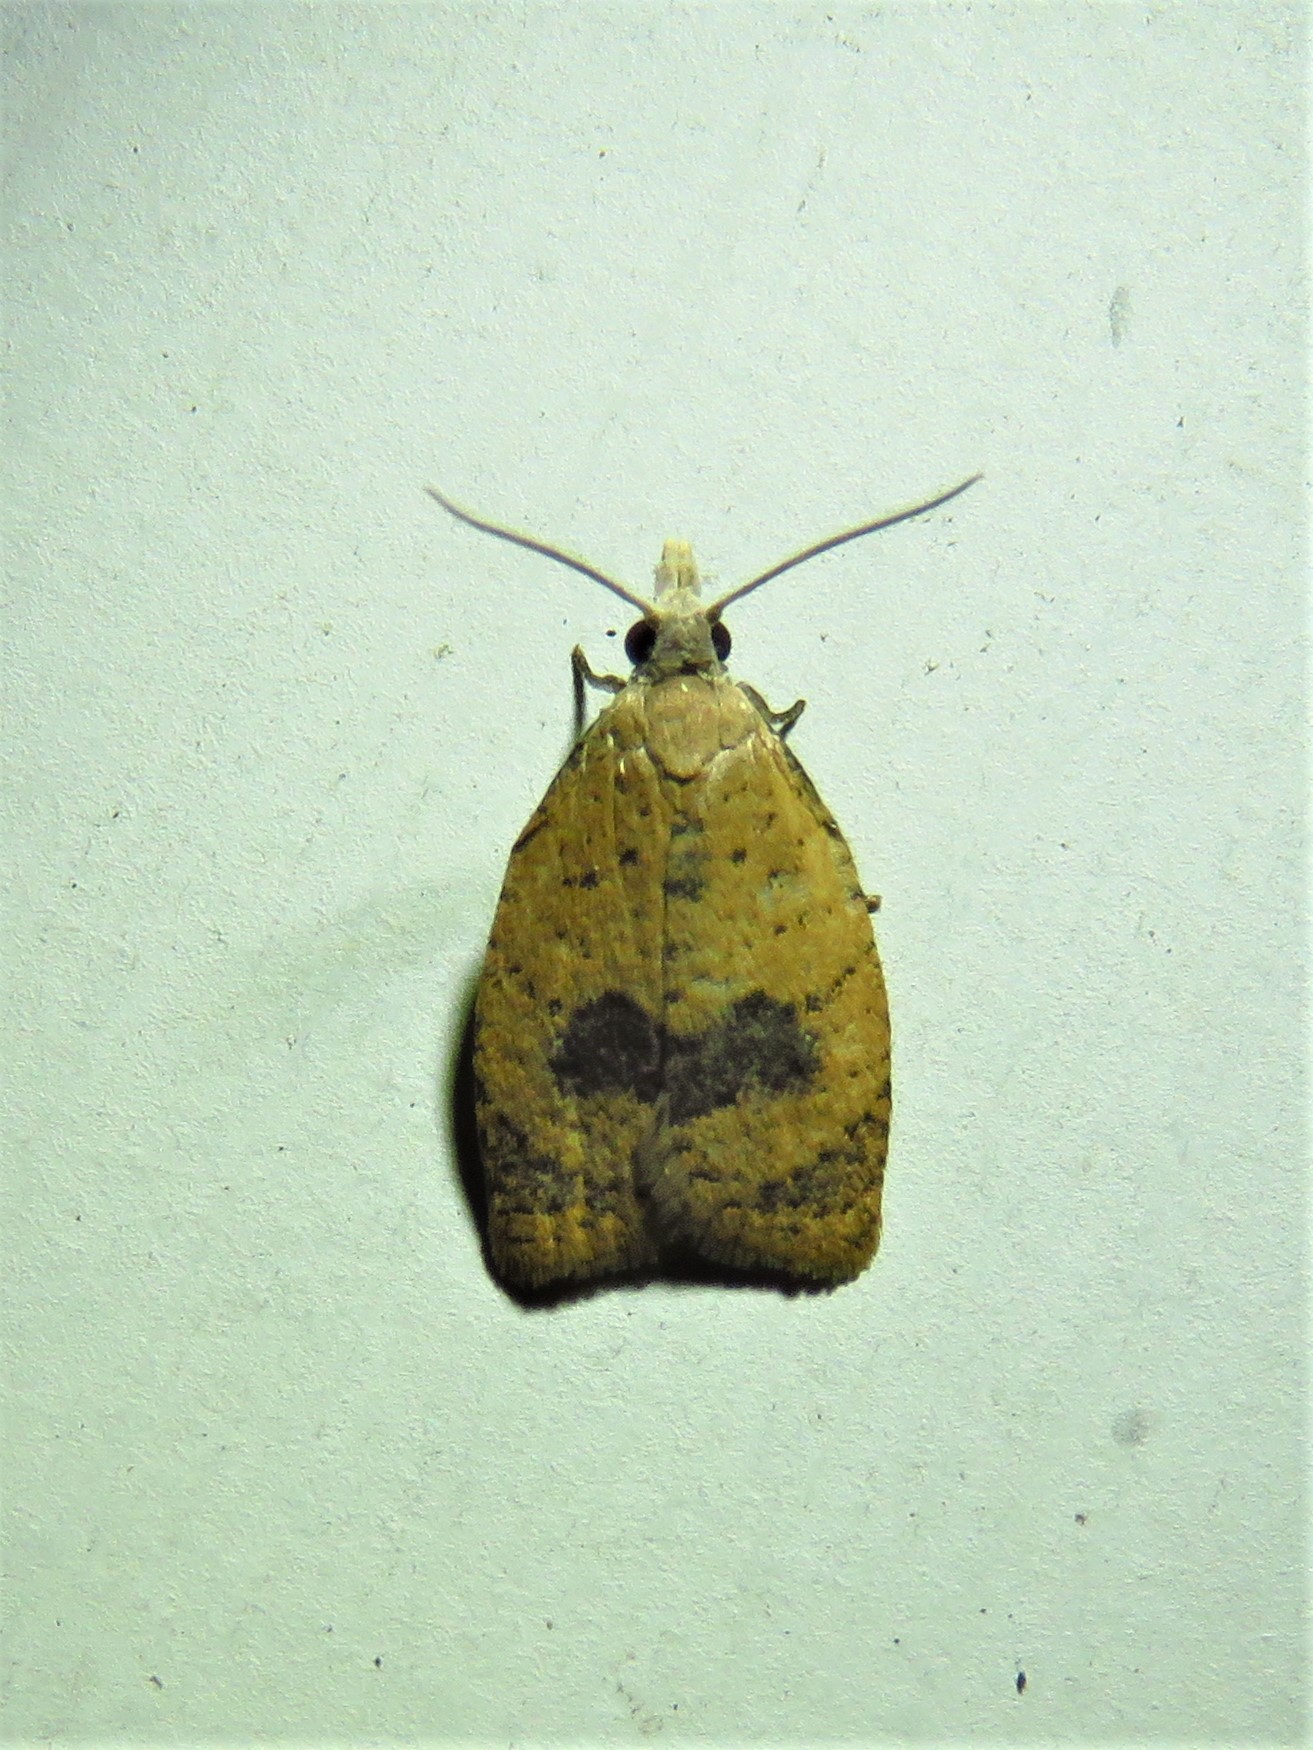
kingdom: Animalia
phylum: Arthropoda
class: Insecta
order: Lepidoptera
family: Tortricidae
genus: Sparganothoides
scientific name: Sparganothoides lentiginosana
